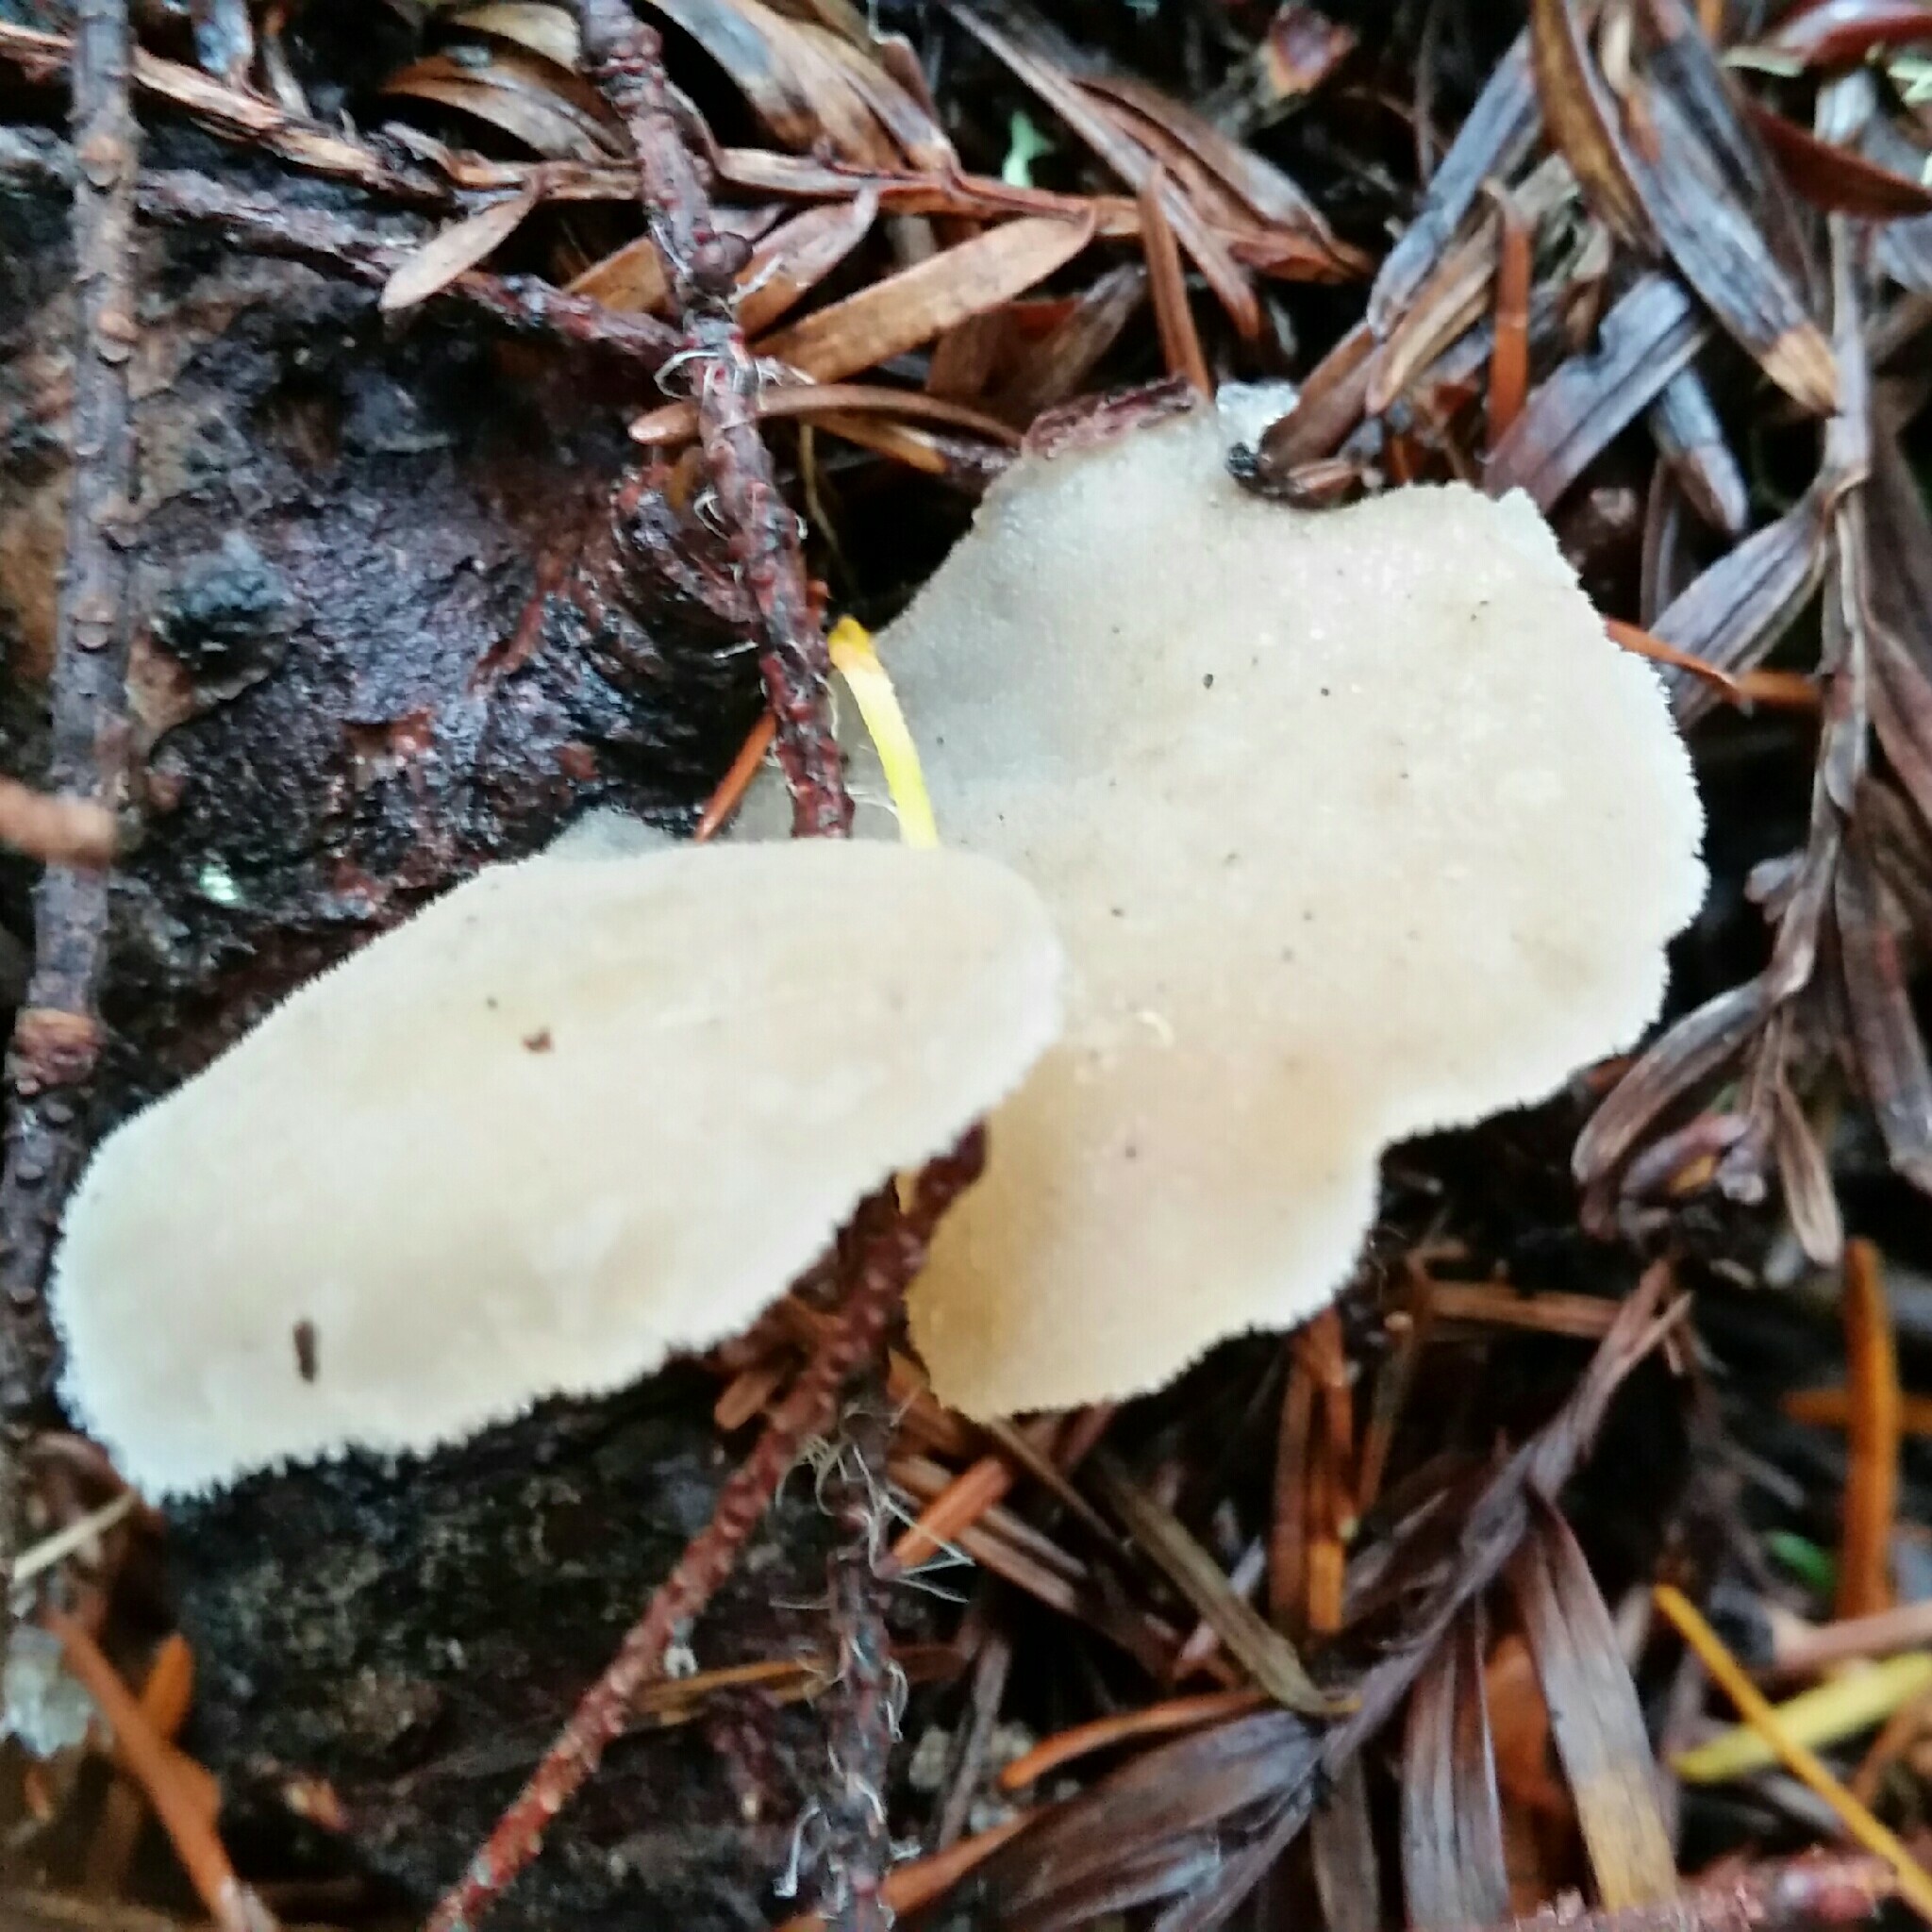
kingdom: Fungi
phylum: Basidiomycota
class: Agaricomycetes
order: Auriculariales
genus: Pseudohydnum
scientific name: Pseudohydnum gelatinosum
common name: Jelly tongue
